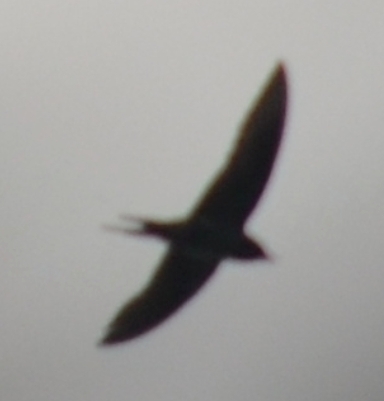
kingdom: Animalia
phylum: Chordata
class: Aves
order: Passeriformes
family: Hirundinidae
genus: Hirundo
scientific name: Hirundo rustica
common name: Barn swallow
